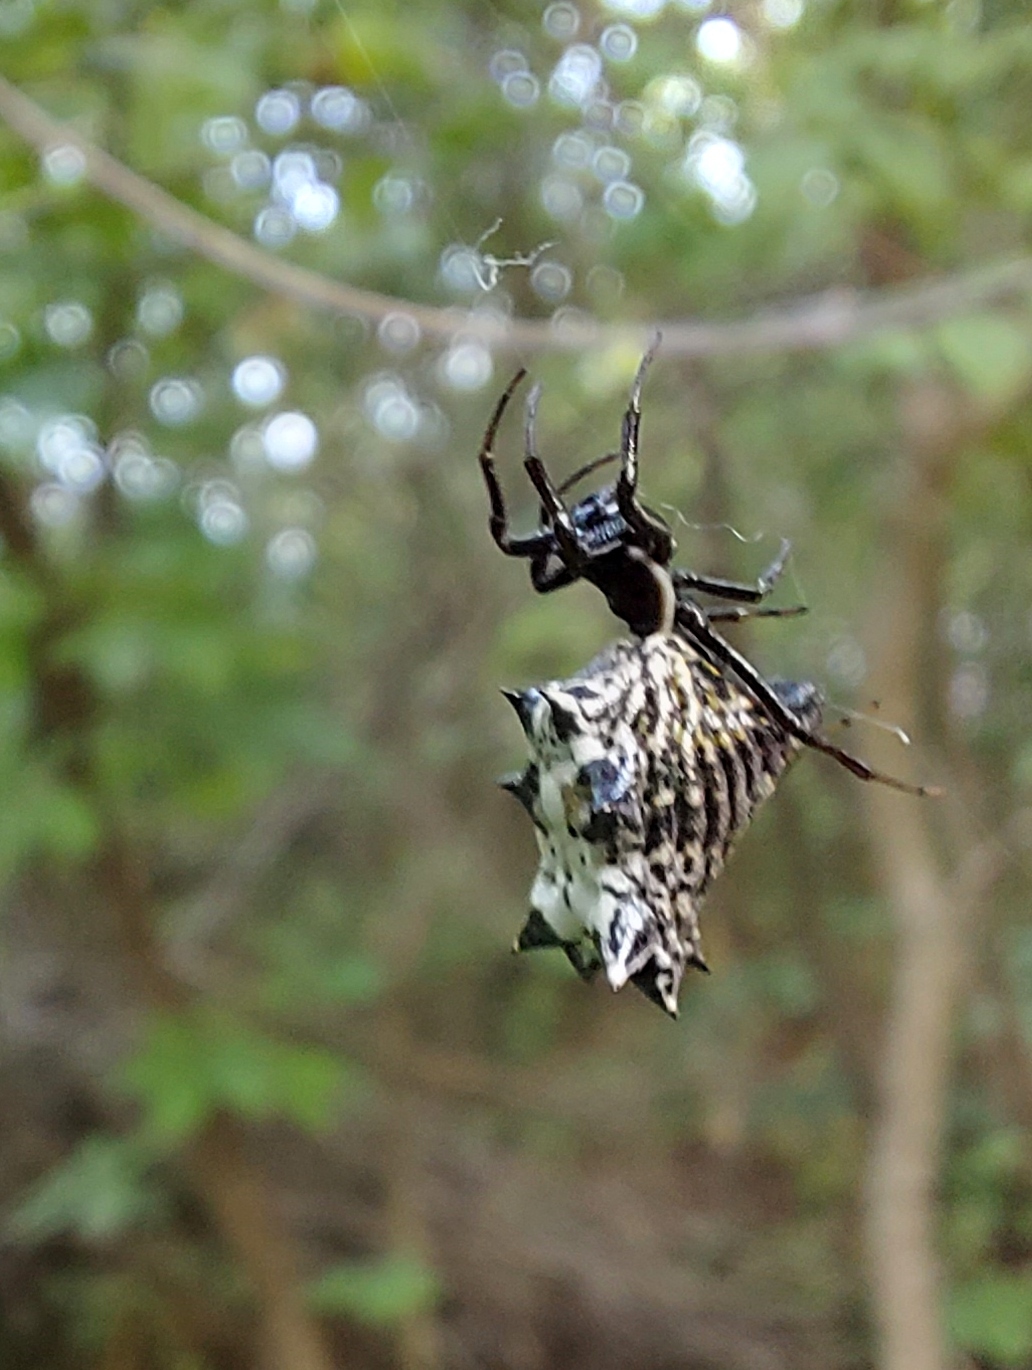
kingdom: Animalia
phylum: Arthropoda
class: Arachnida
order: Araneae
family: Araneidae
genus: Micrathena
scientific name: Micrathena gracilis
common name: Orb weavers
